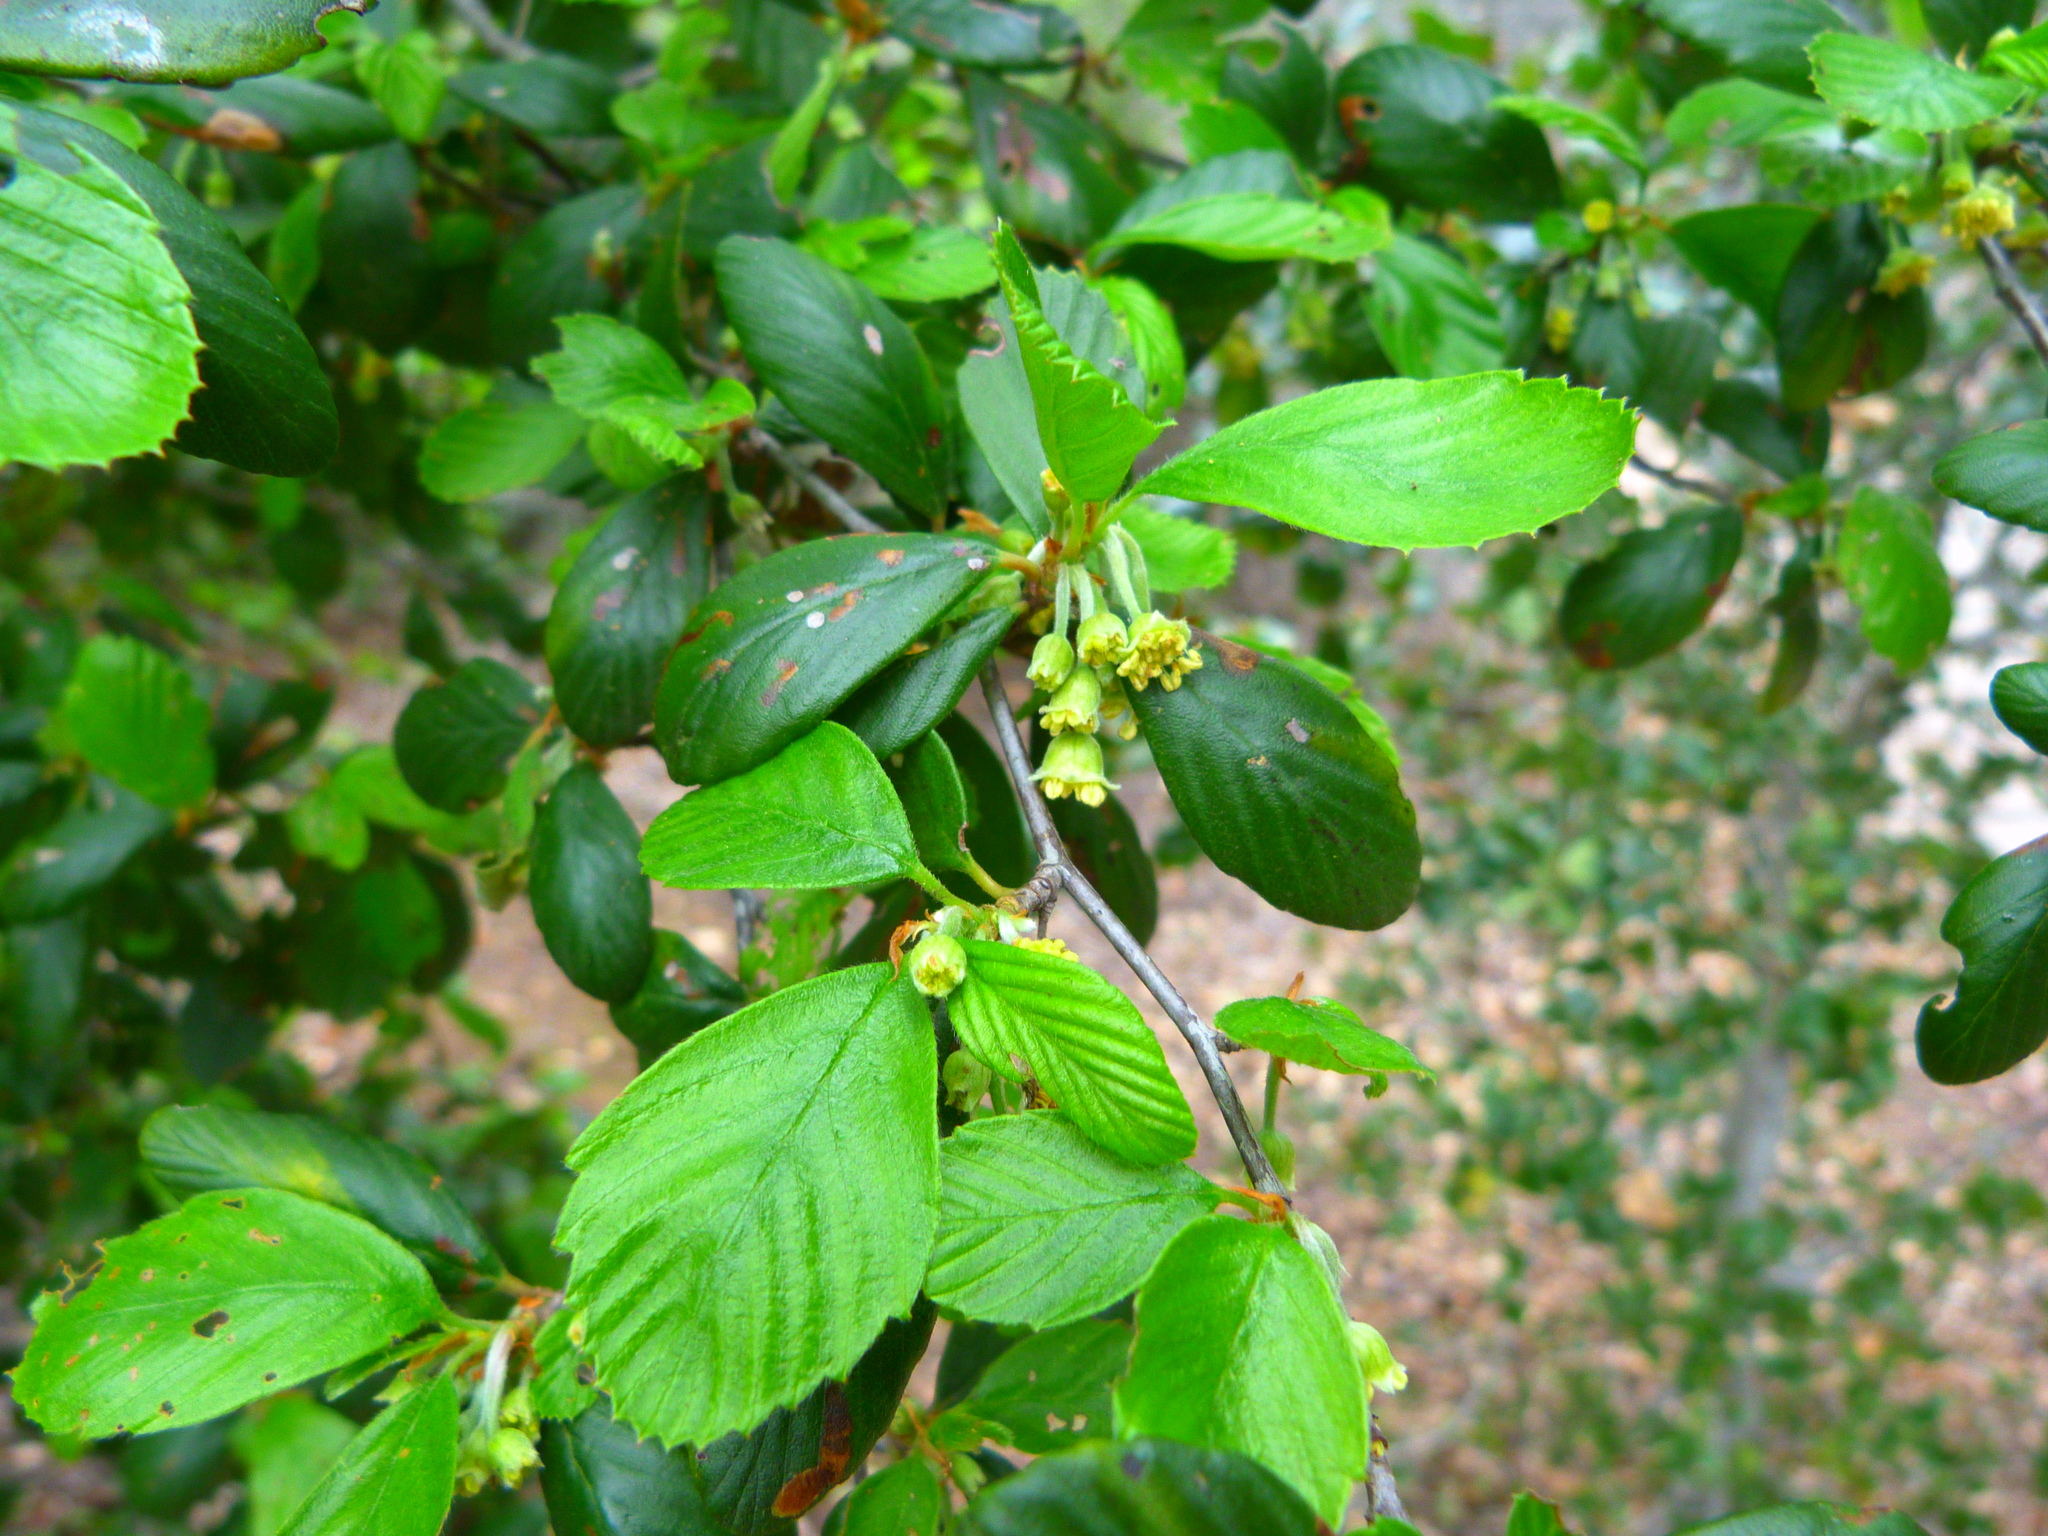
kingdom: Plantae
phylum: Tracheophyta
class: Magnoliopsida
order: Rosales
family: Rosaceae
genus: Cercocarpus
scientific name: Cercocarpus betuloides
